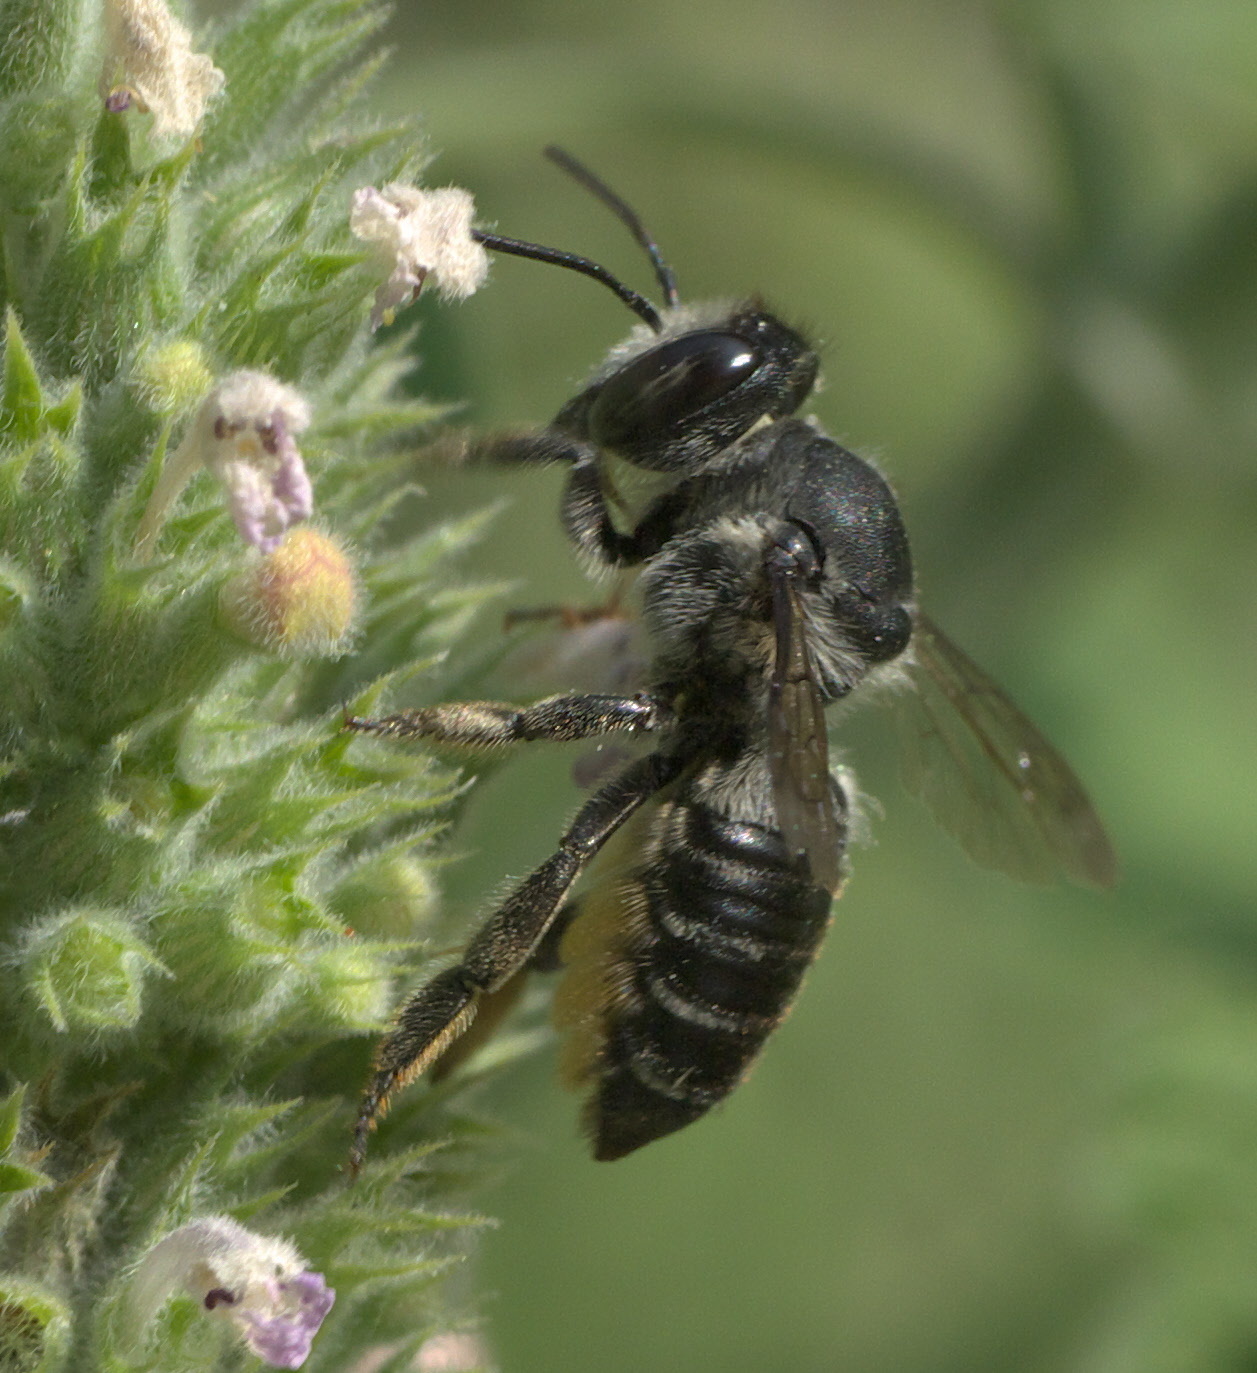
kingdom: Animalia
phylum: Arthropoda
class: Insecta
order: Hymenoptera
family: Megachilidae
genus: Megachile
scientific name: Megachile mendica
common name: Flat-tailed leafcutter
